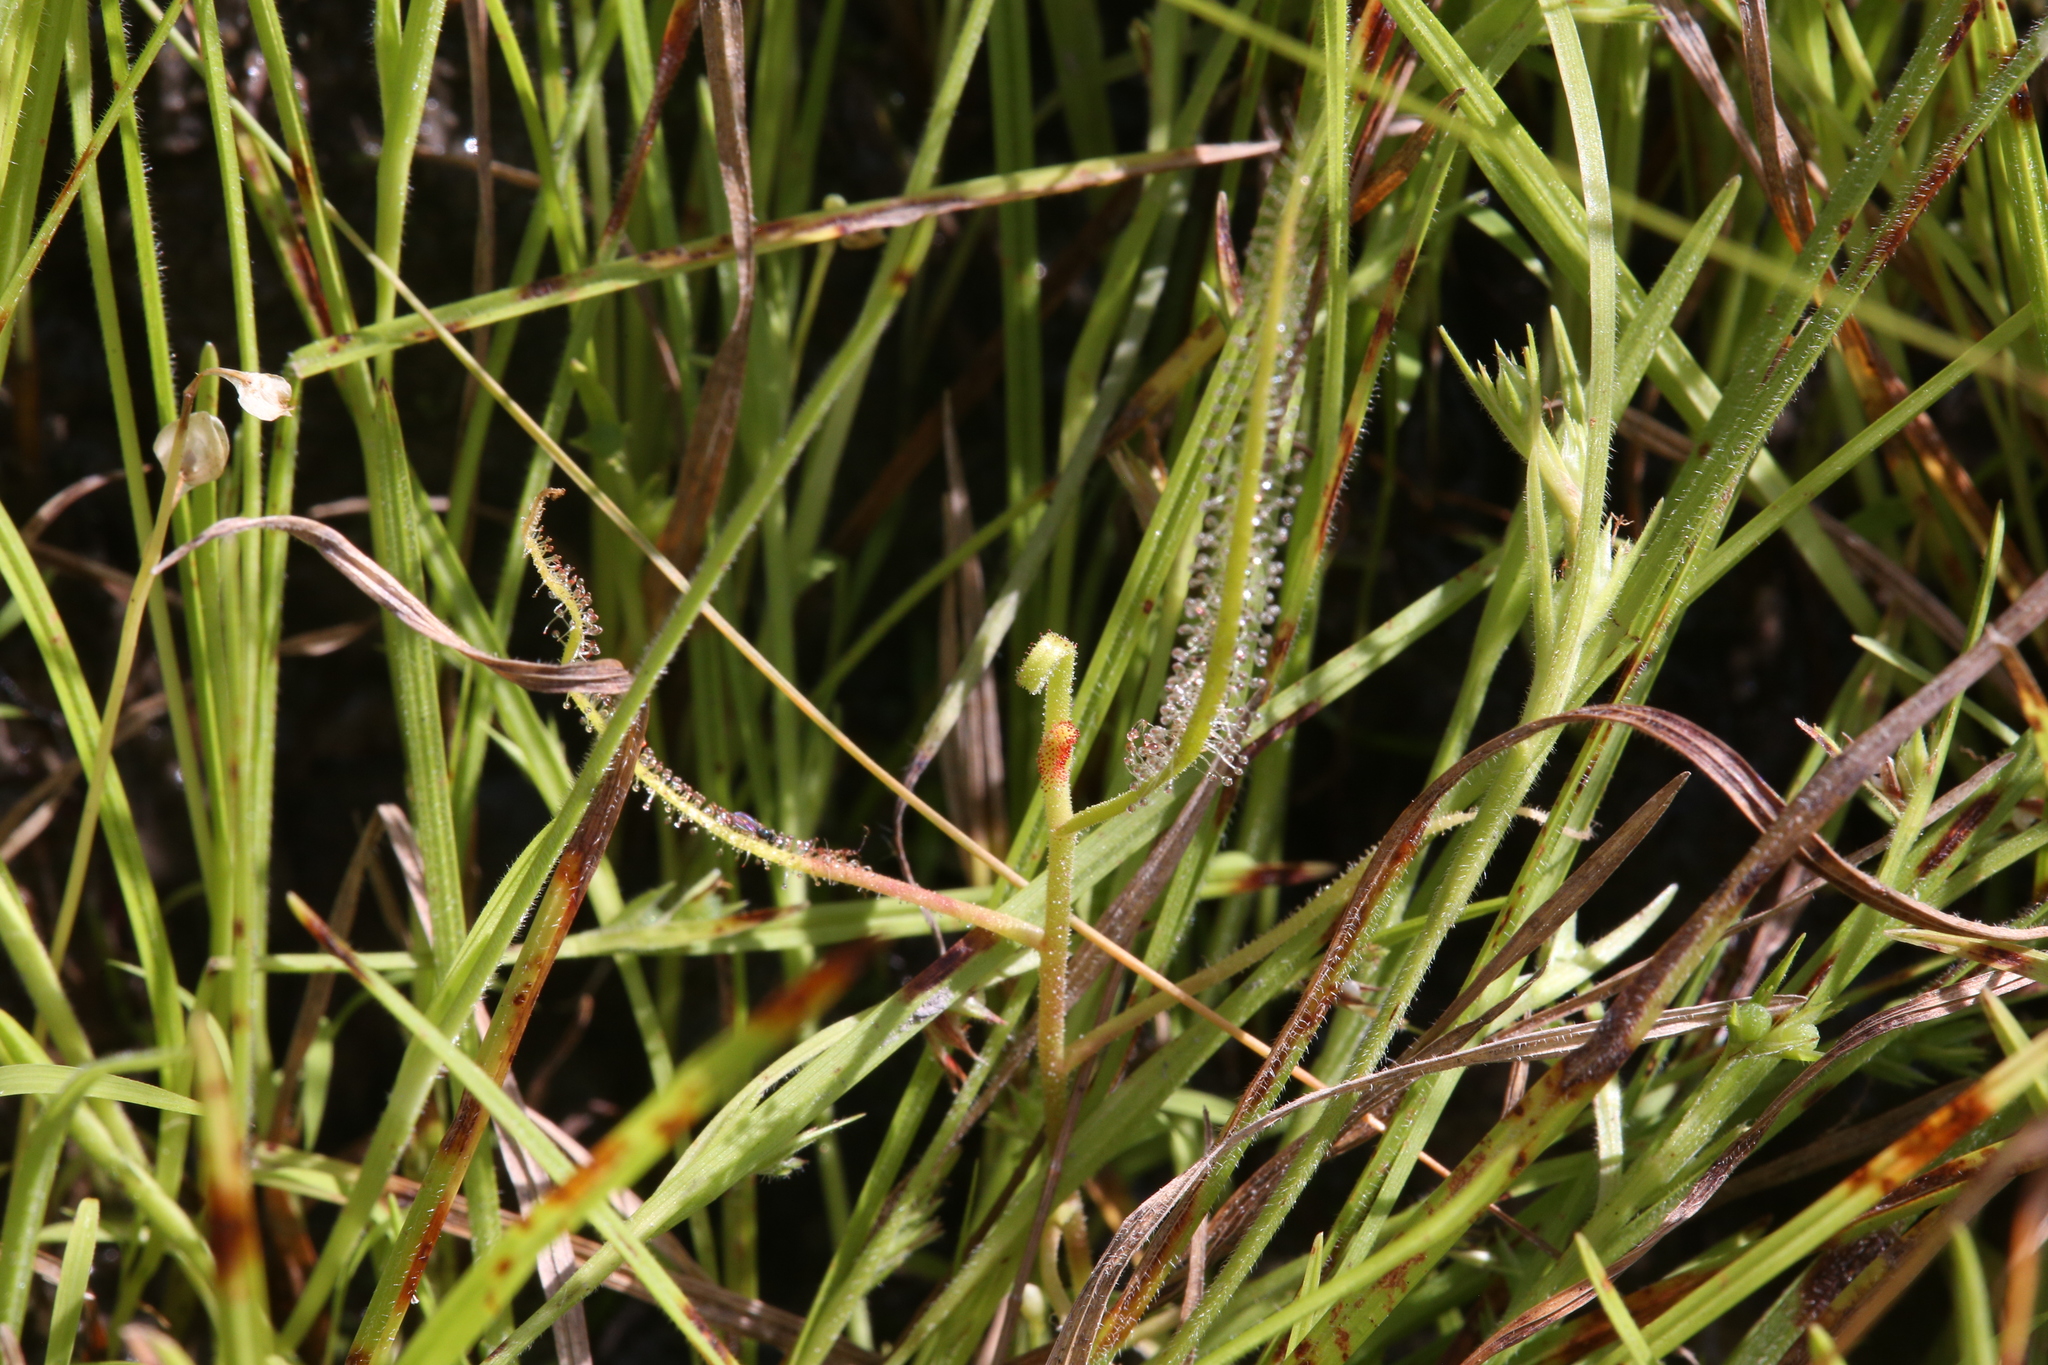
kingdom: Plantae
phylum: Tracheophyta
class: Magnoliopsida
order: Caryophyllales
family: Droseraceae
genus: Drosera
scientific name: Drosera indica
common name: Indian sundew
